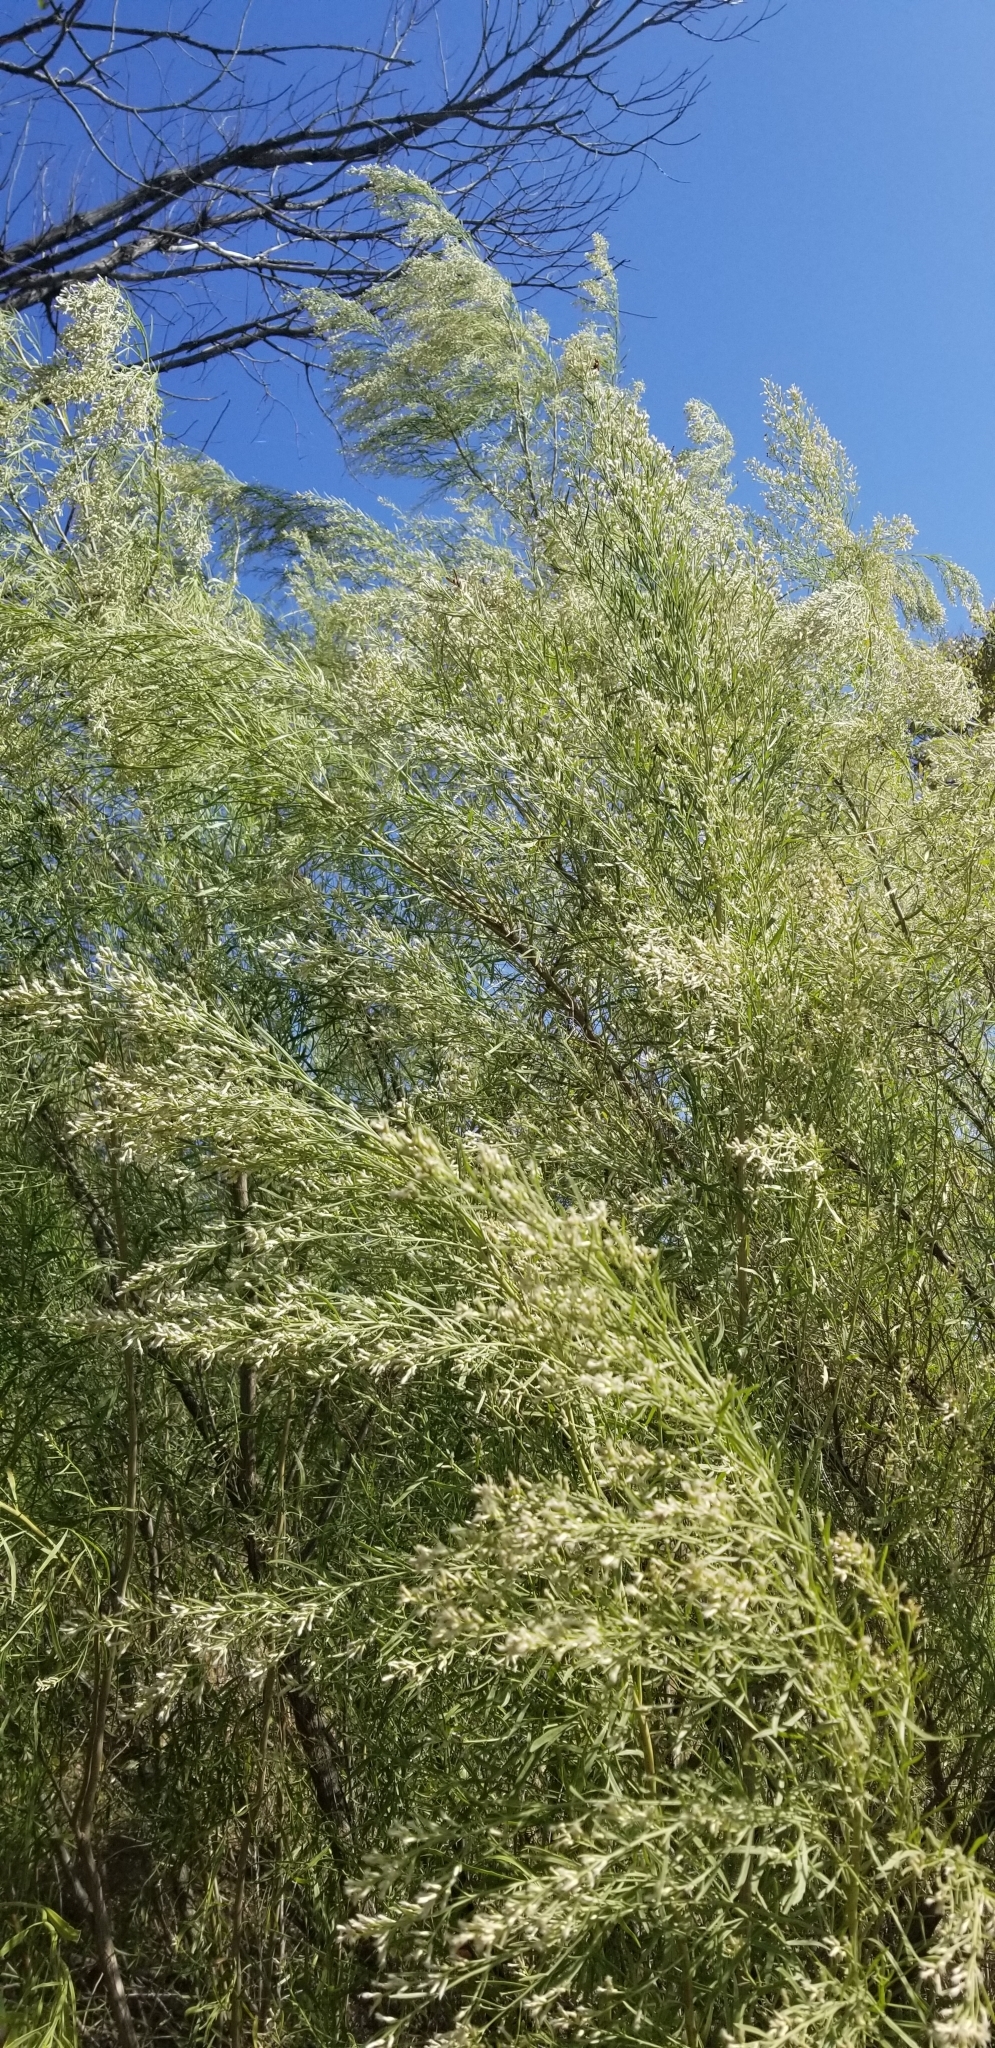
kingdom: Plantae
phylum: Tracheophyta
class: Magnoliopsida
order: Asterales
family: Asteraceae
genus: Baccharis
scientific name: Baccharis neglecta
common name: Roosevelt-weed
